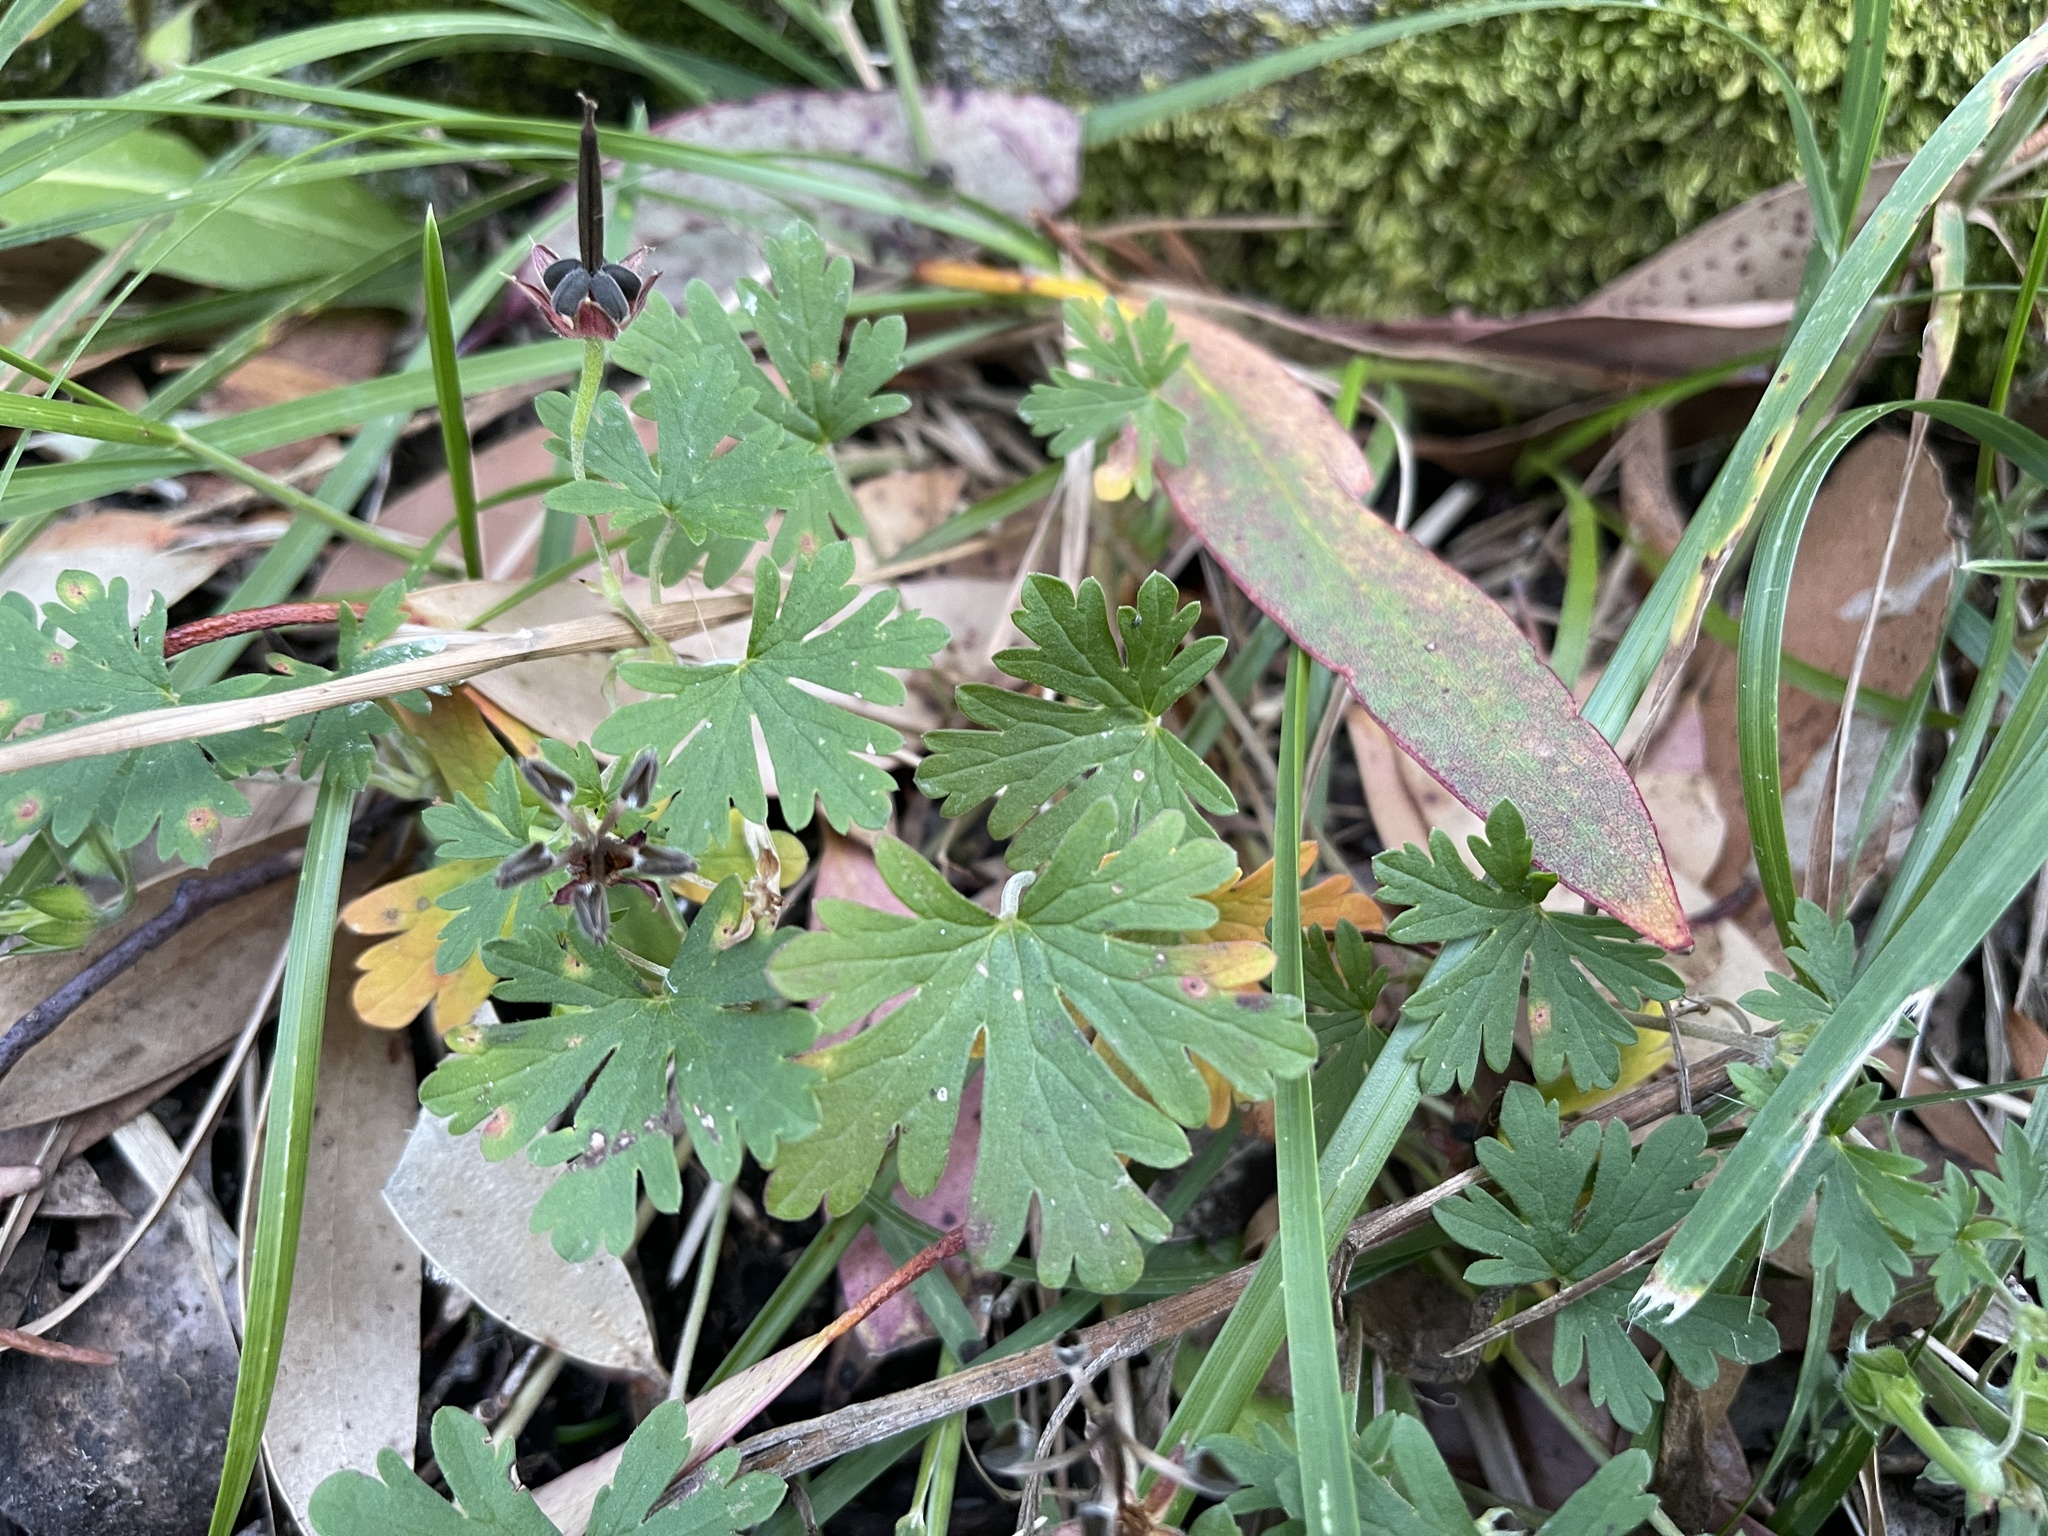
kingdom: Plantae
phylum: Tracheophyta
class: Magnoliopsida
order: Geraniales
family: Geraniaceae
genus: Geranium
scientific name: Geranium potentilloides
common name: Cinquefoil geranium
